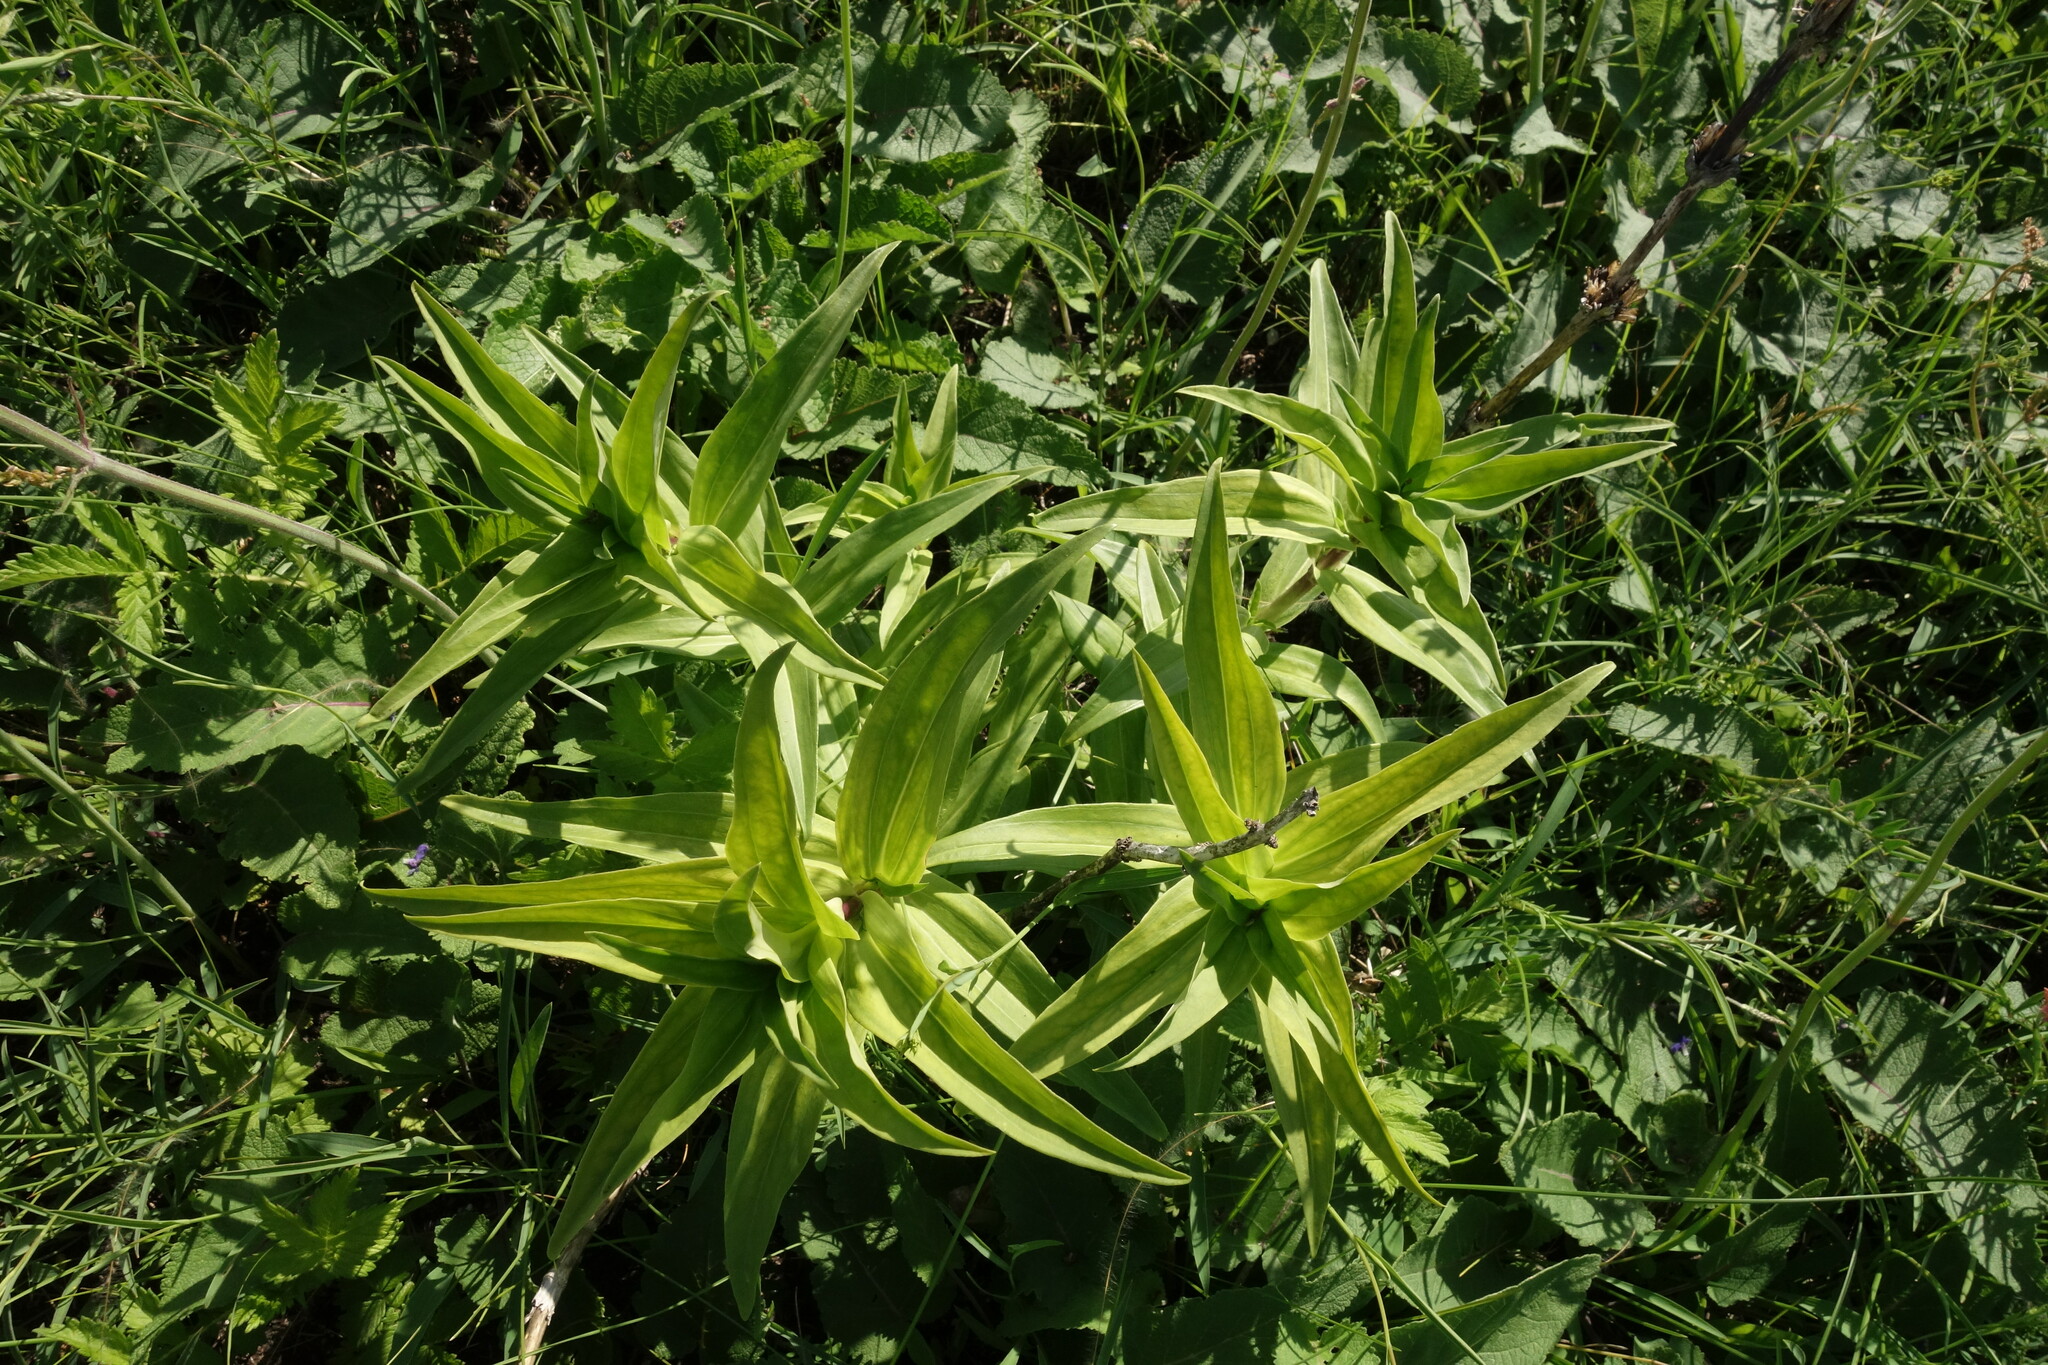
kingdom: Plantae
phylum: Tracheophyta
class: Magnoliopsida
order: Gentianales
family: Gentianaceae
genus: Gentiana
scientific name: Gentiana cruciata
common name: Cross gentian
